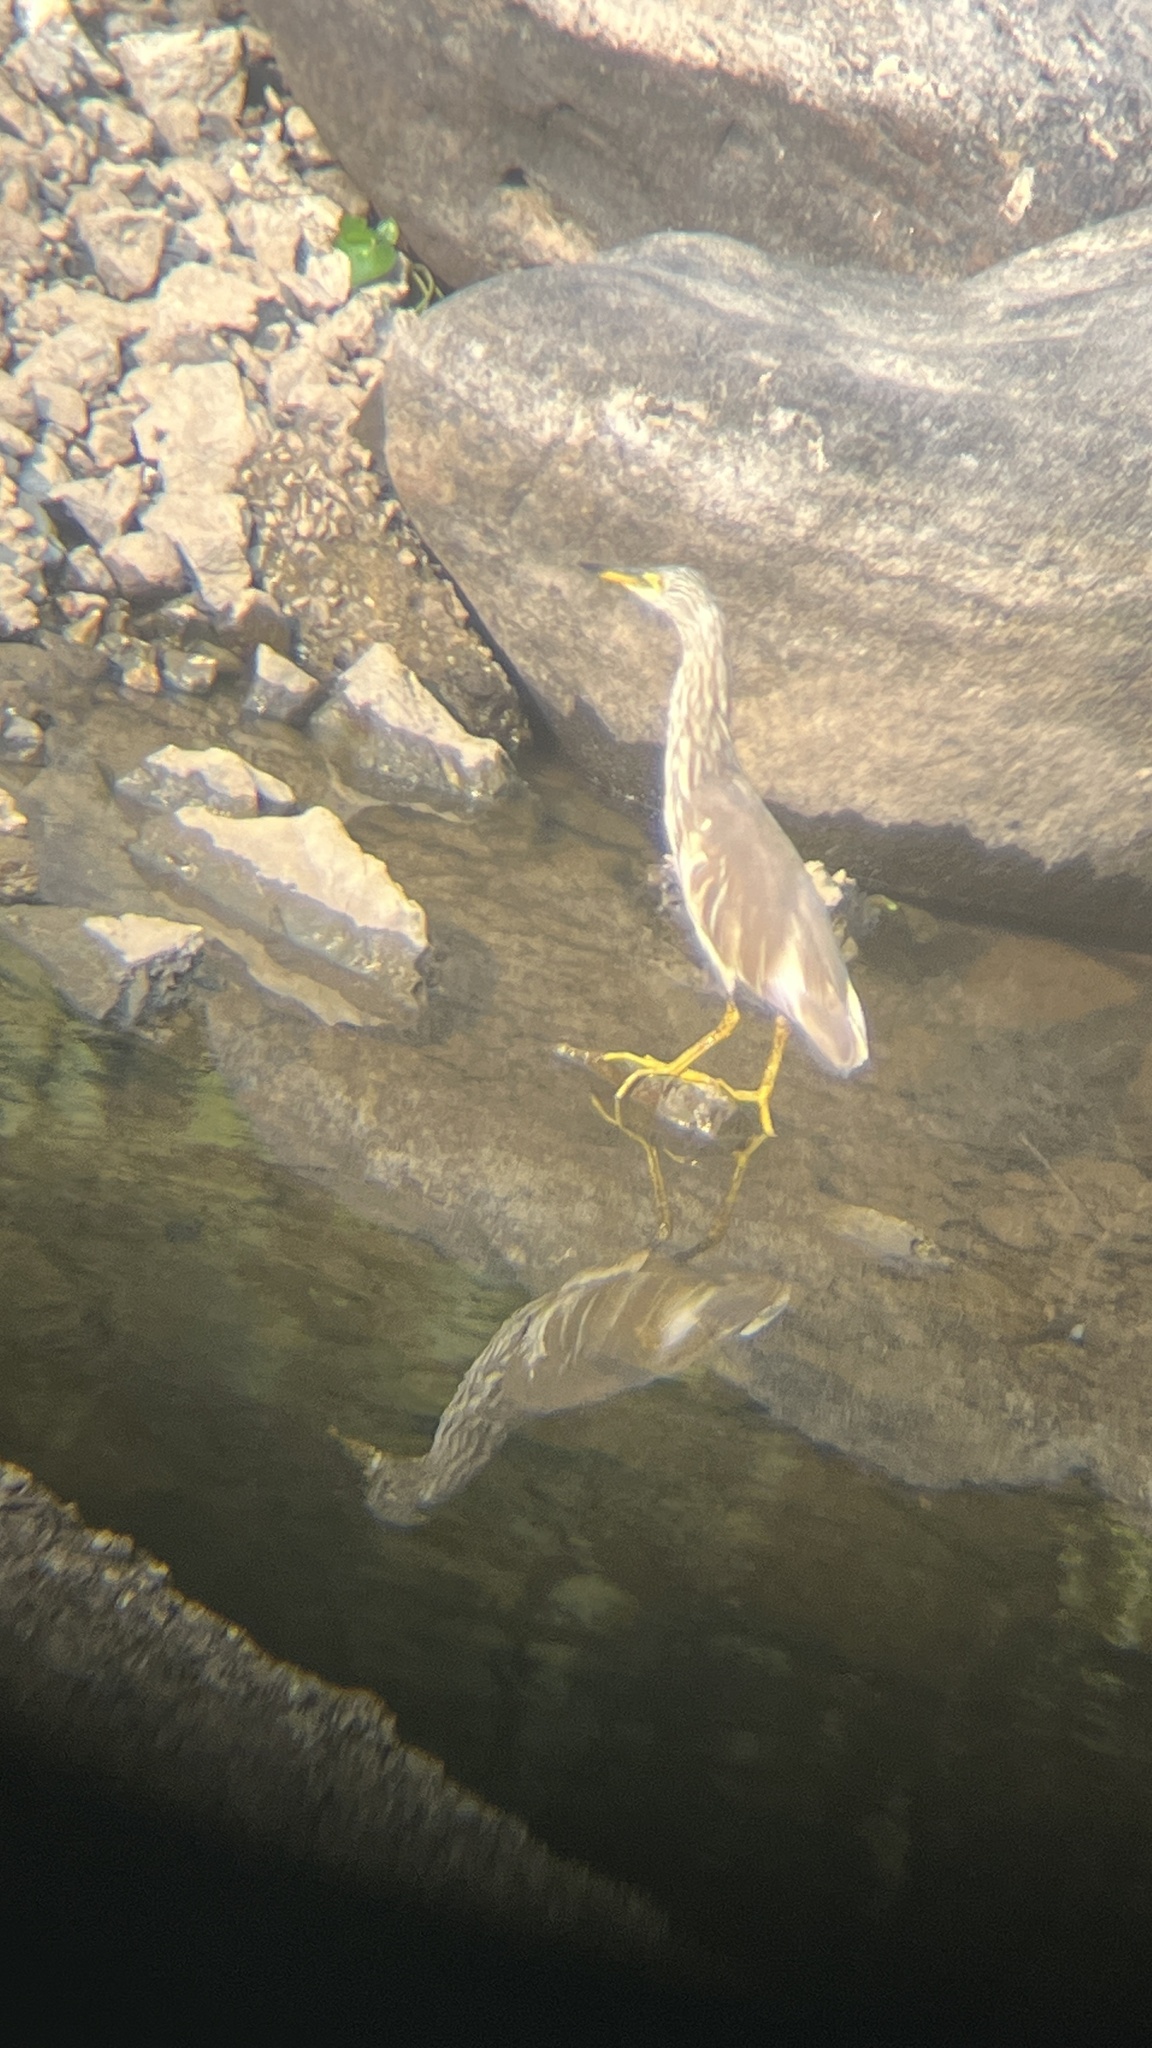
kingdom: Animalia
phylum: Chordata
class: Aves
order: Pelecaniformes
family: Ardeidae
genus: Ardeola
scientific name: Ardeola
